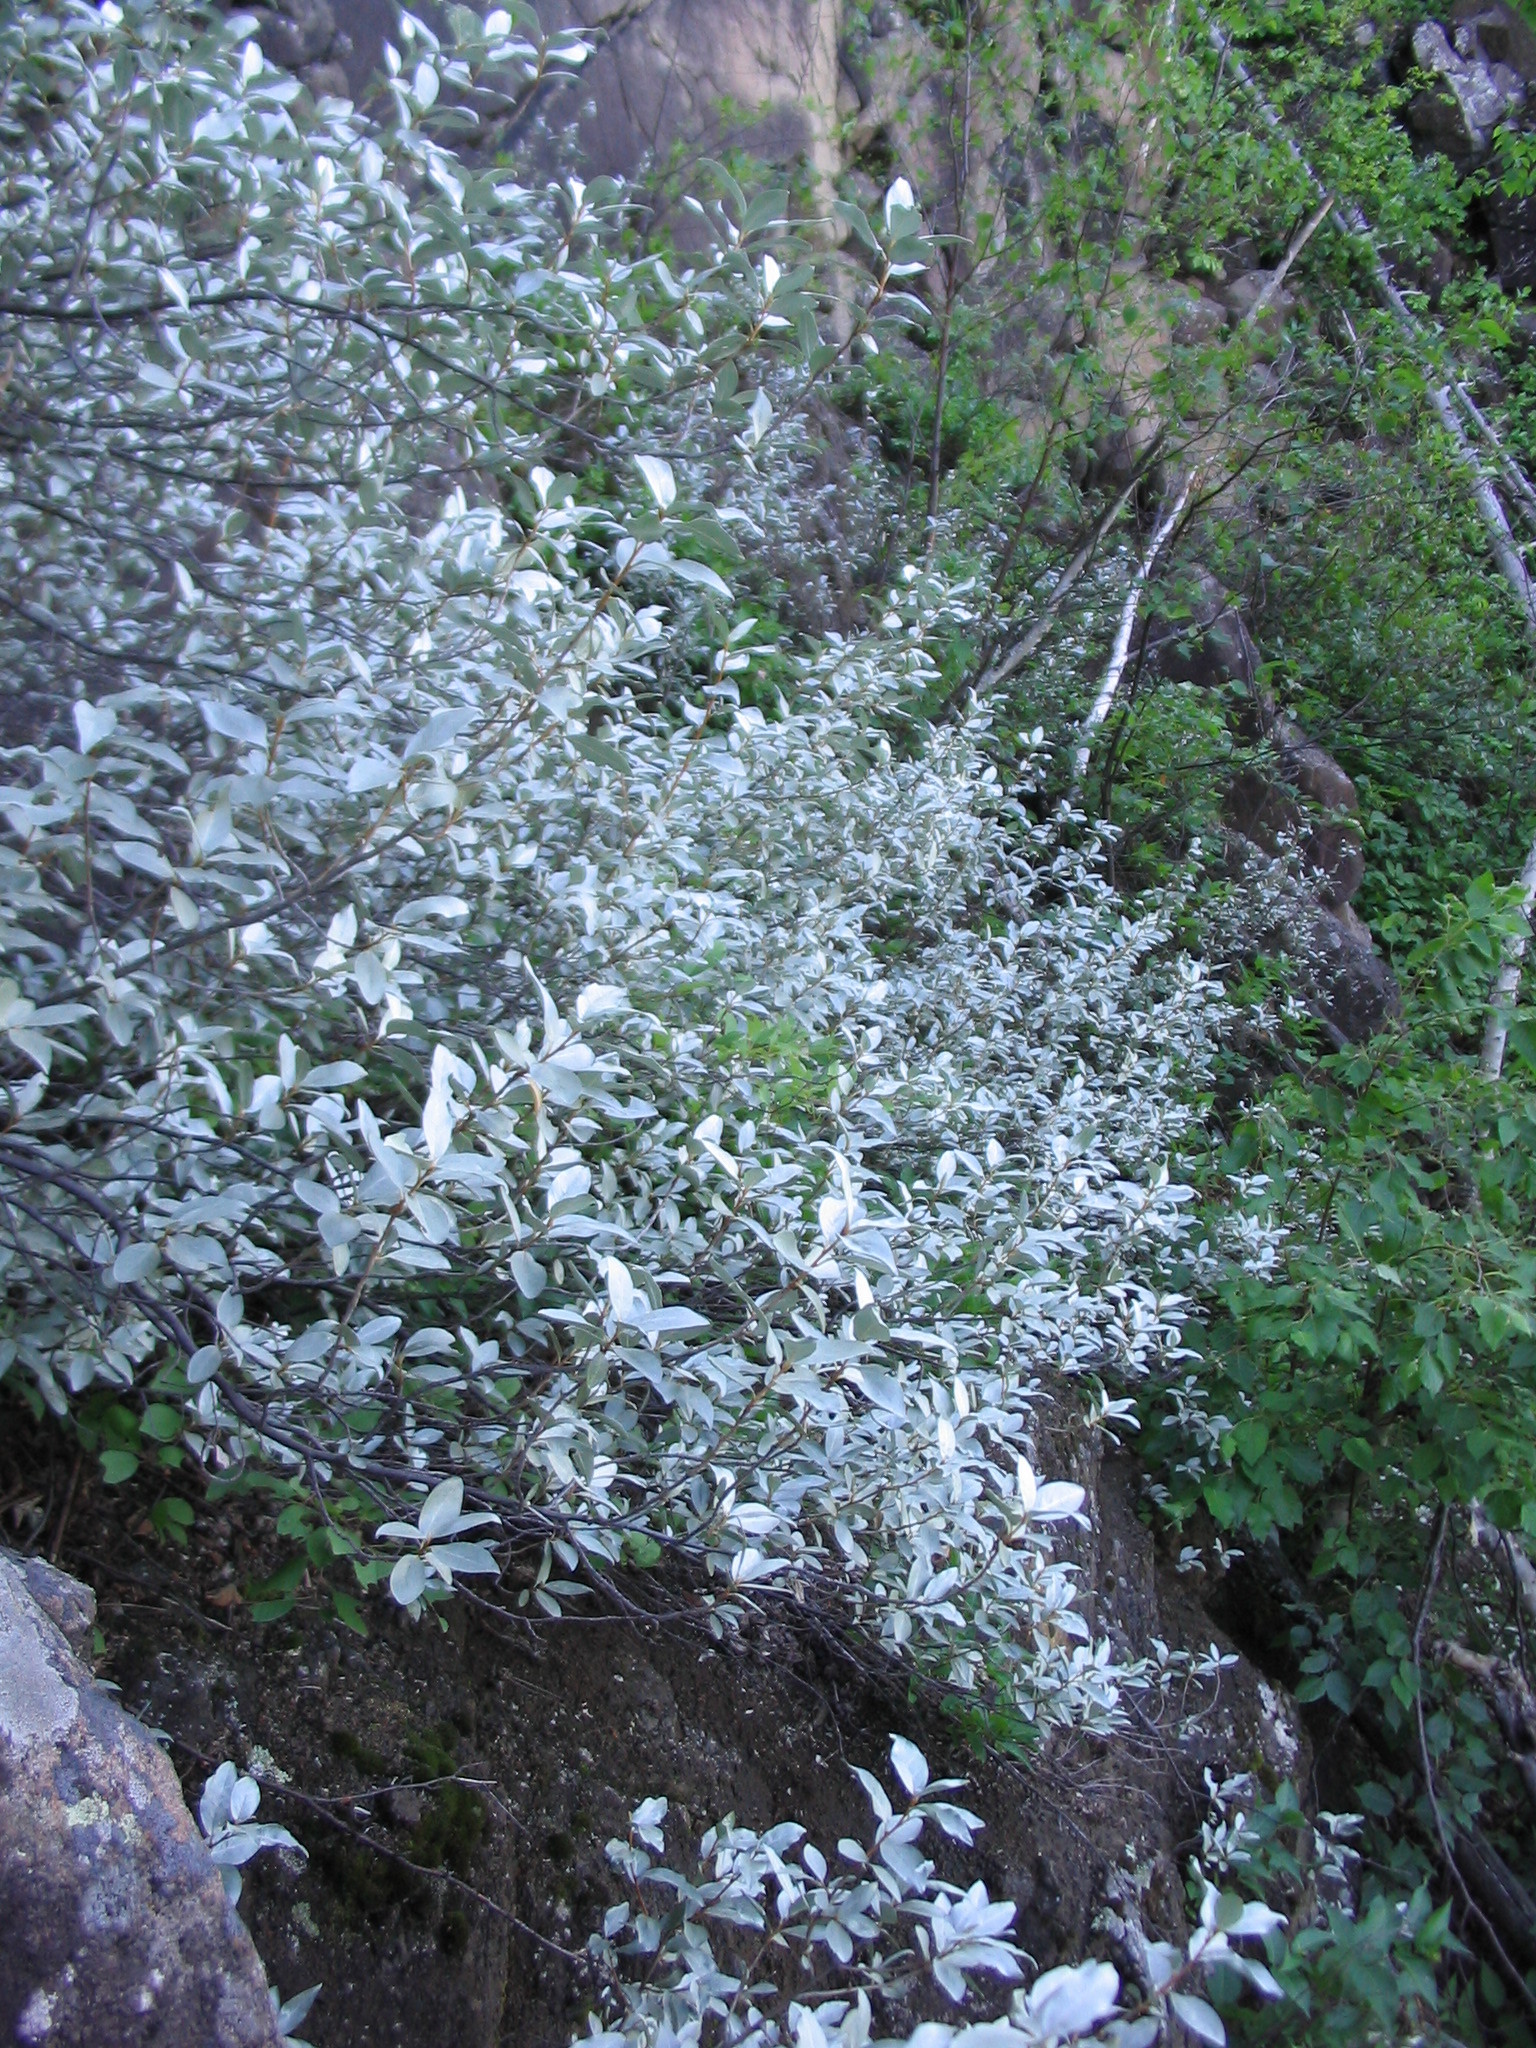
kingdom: Plantae
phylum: Tracheophyta
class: Magnoliopsida
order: Rosales
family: Elaeagnaceae
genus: Elaeagnus
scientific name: Elaeagnus commutata
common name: Silverberry
